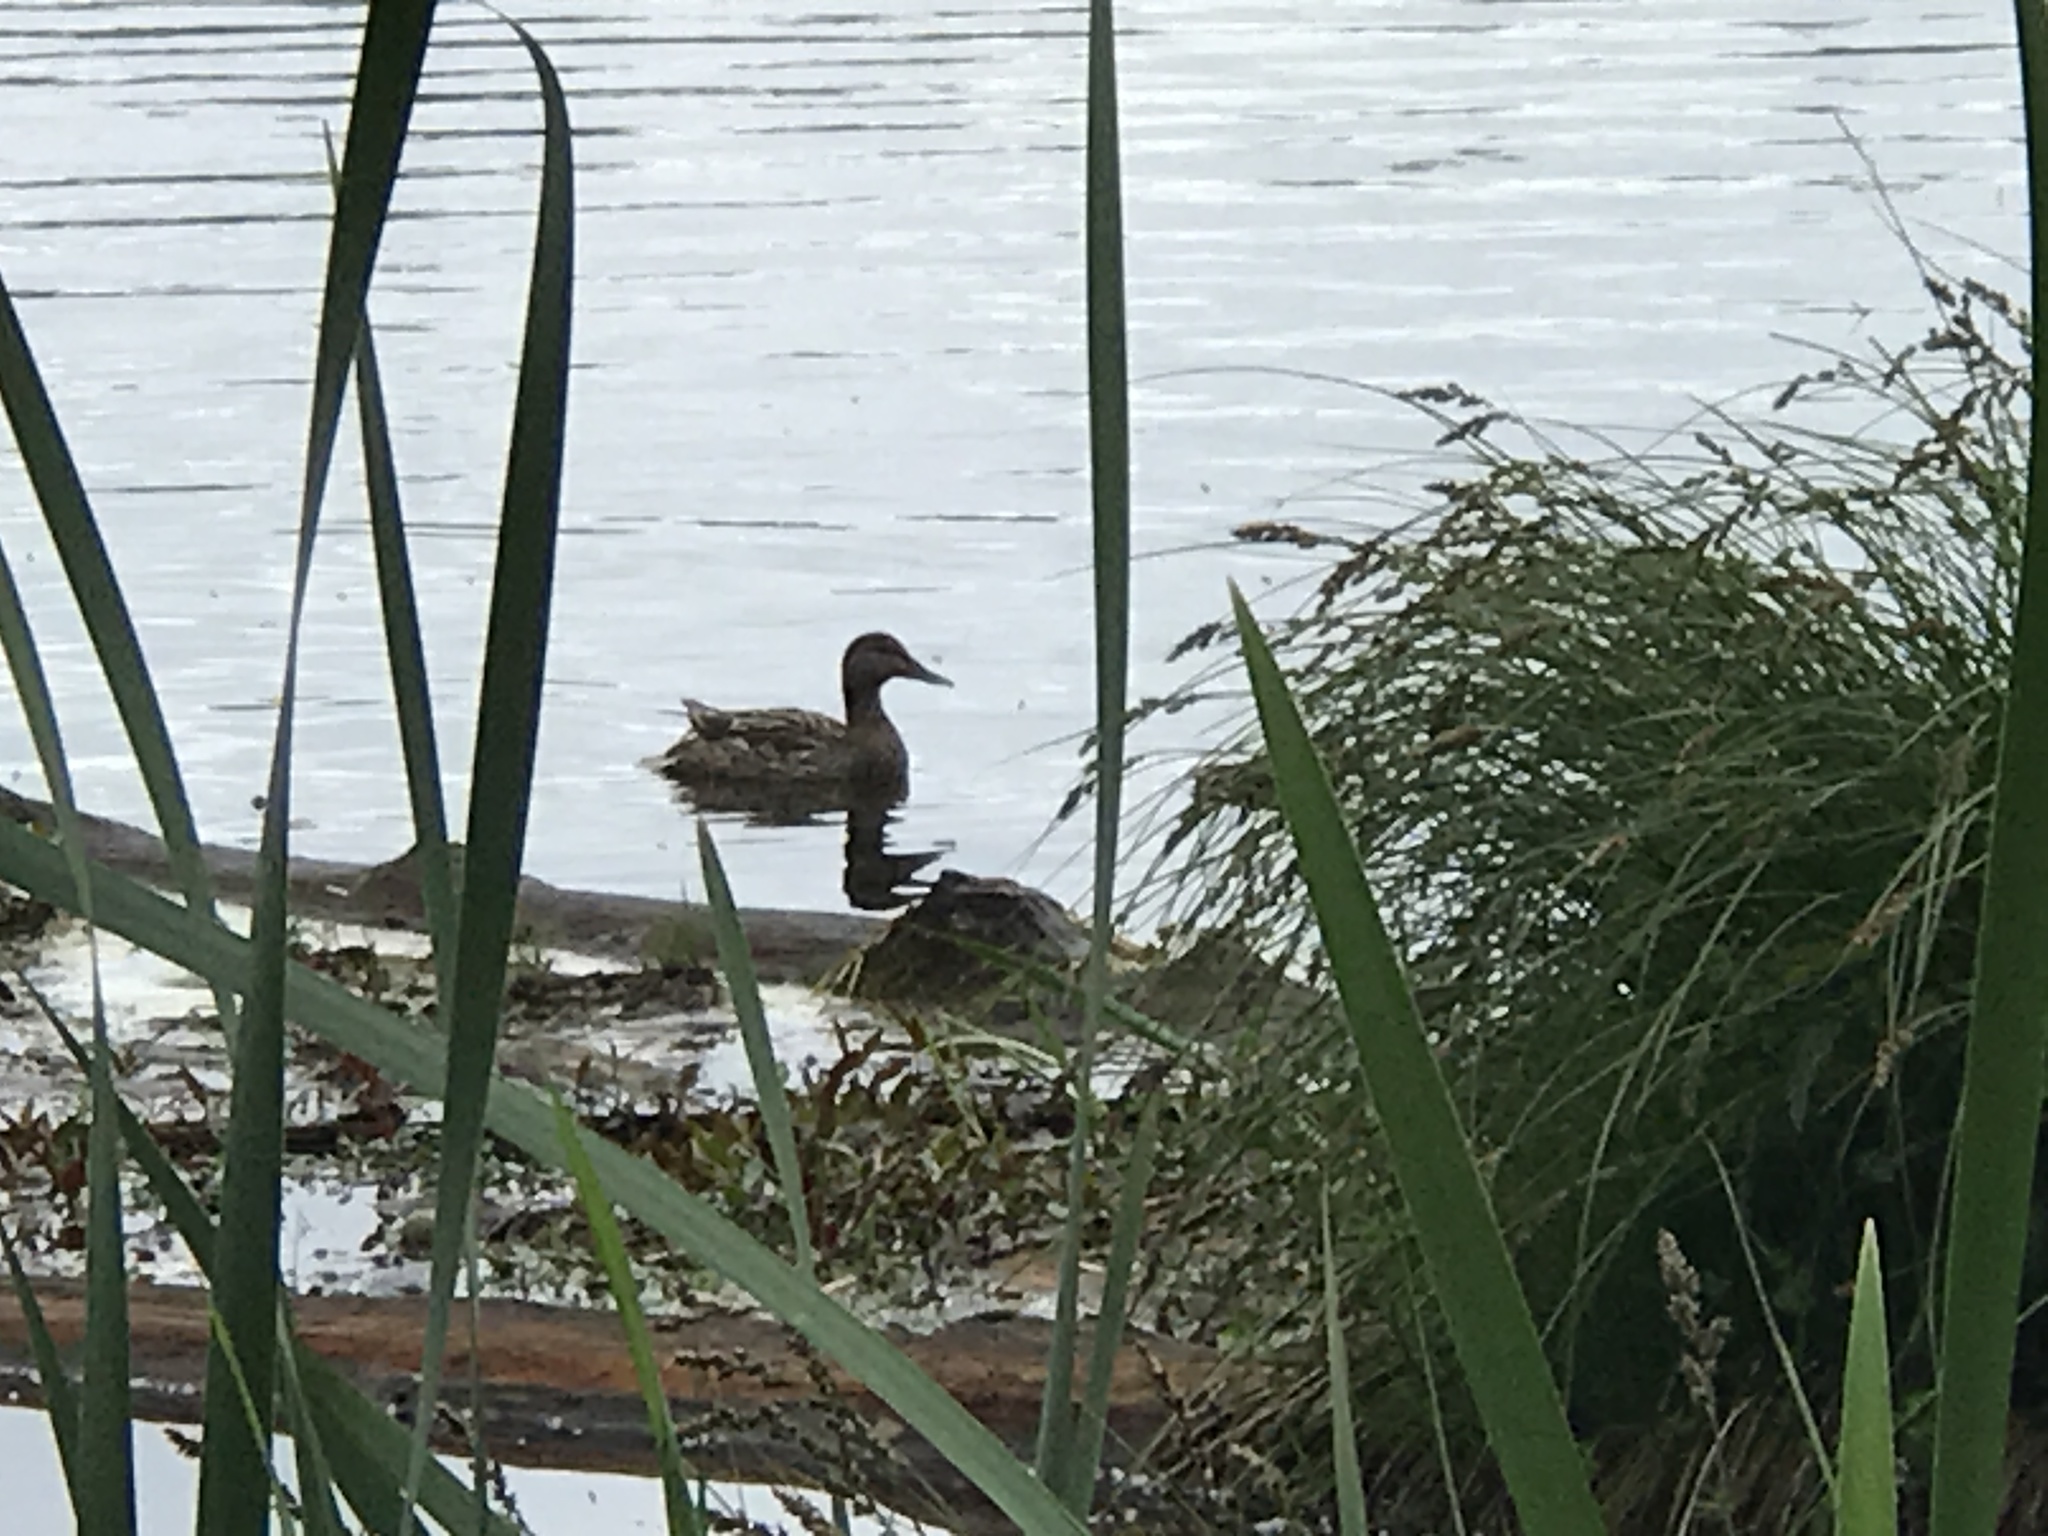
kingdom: Animalia
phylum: Chordata
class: Aves
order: Anseriformes
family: Anatidae
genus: Anas
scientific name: Anas platyrhynchos
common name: Mallard
